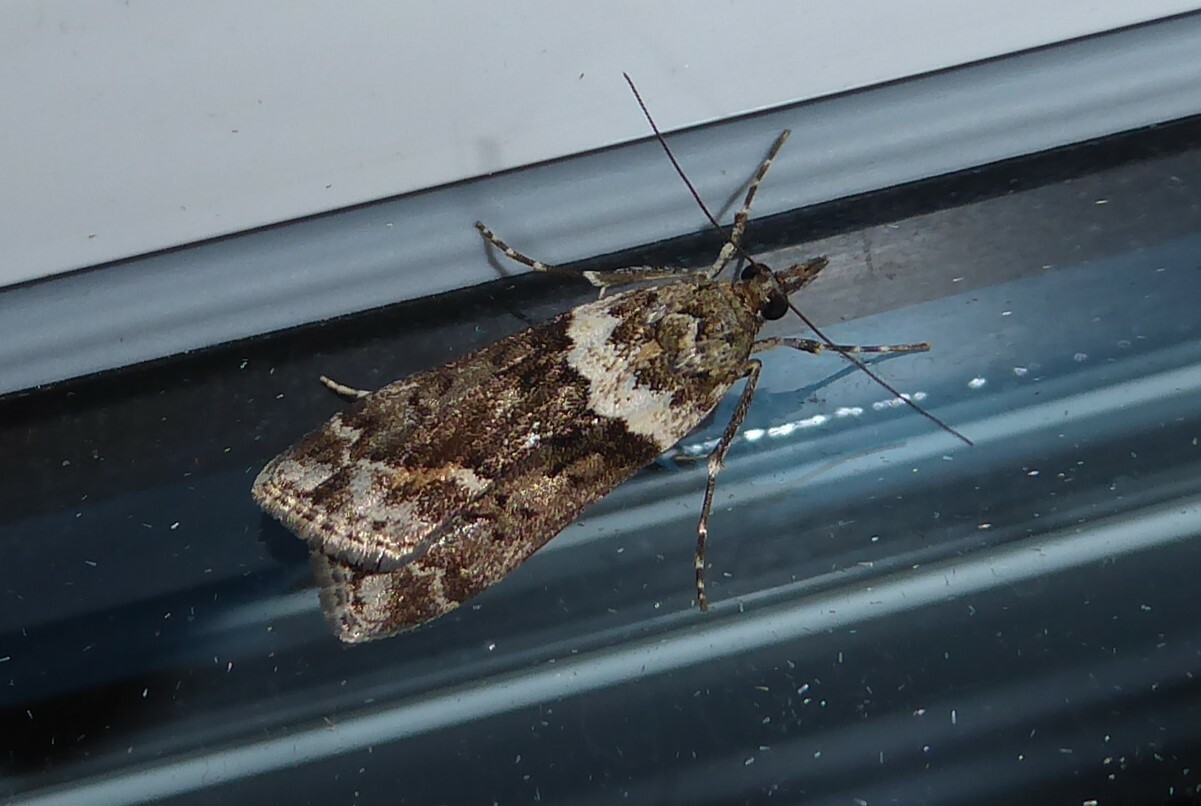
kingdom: Animalia
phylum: Arthropoda
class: Insecta
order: Lepidoptera
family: Crambidae
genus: Eudonia
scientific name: Eudonia submarginalis
